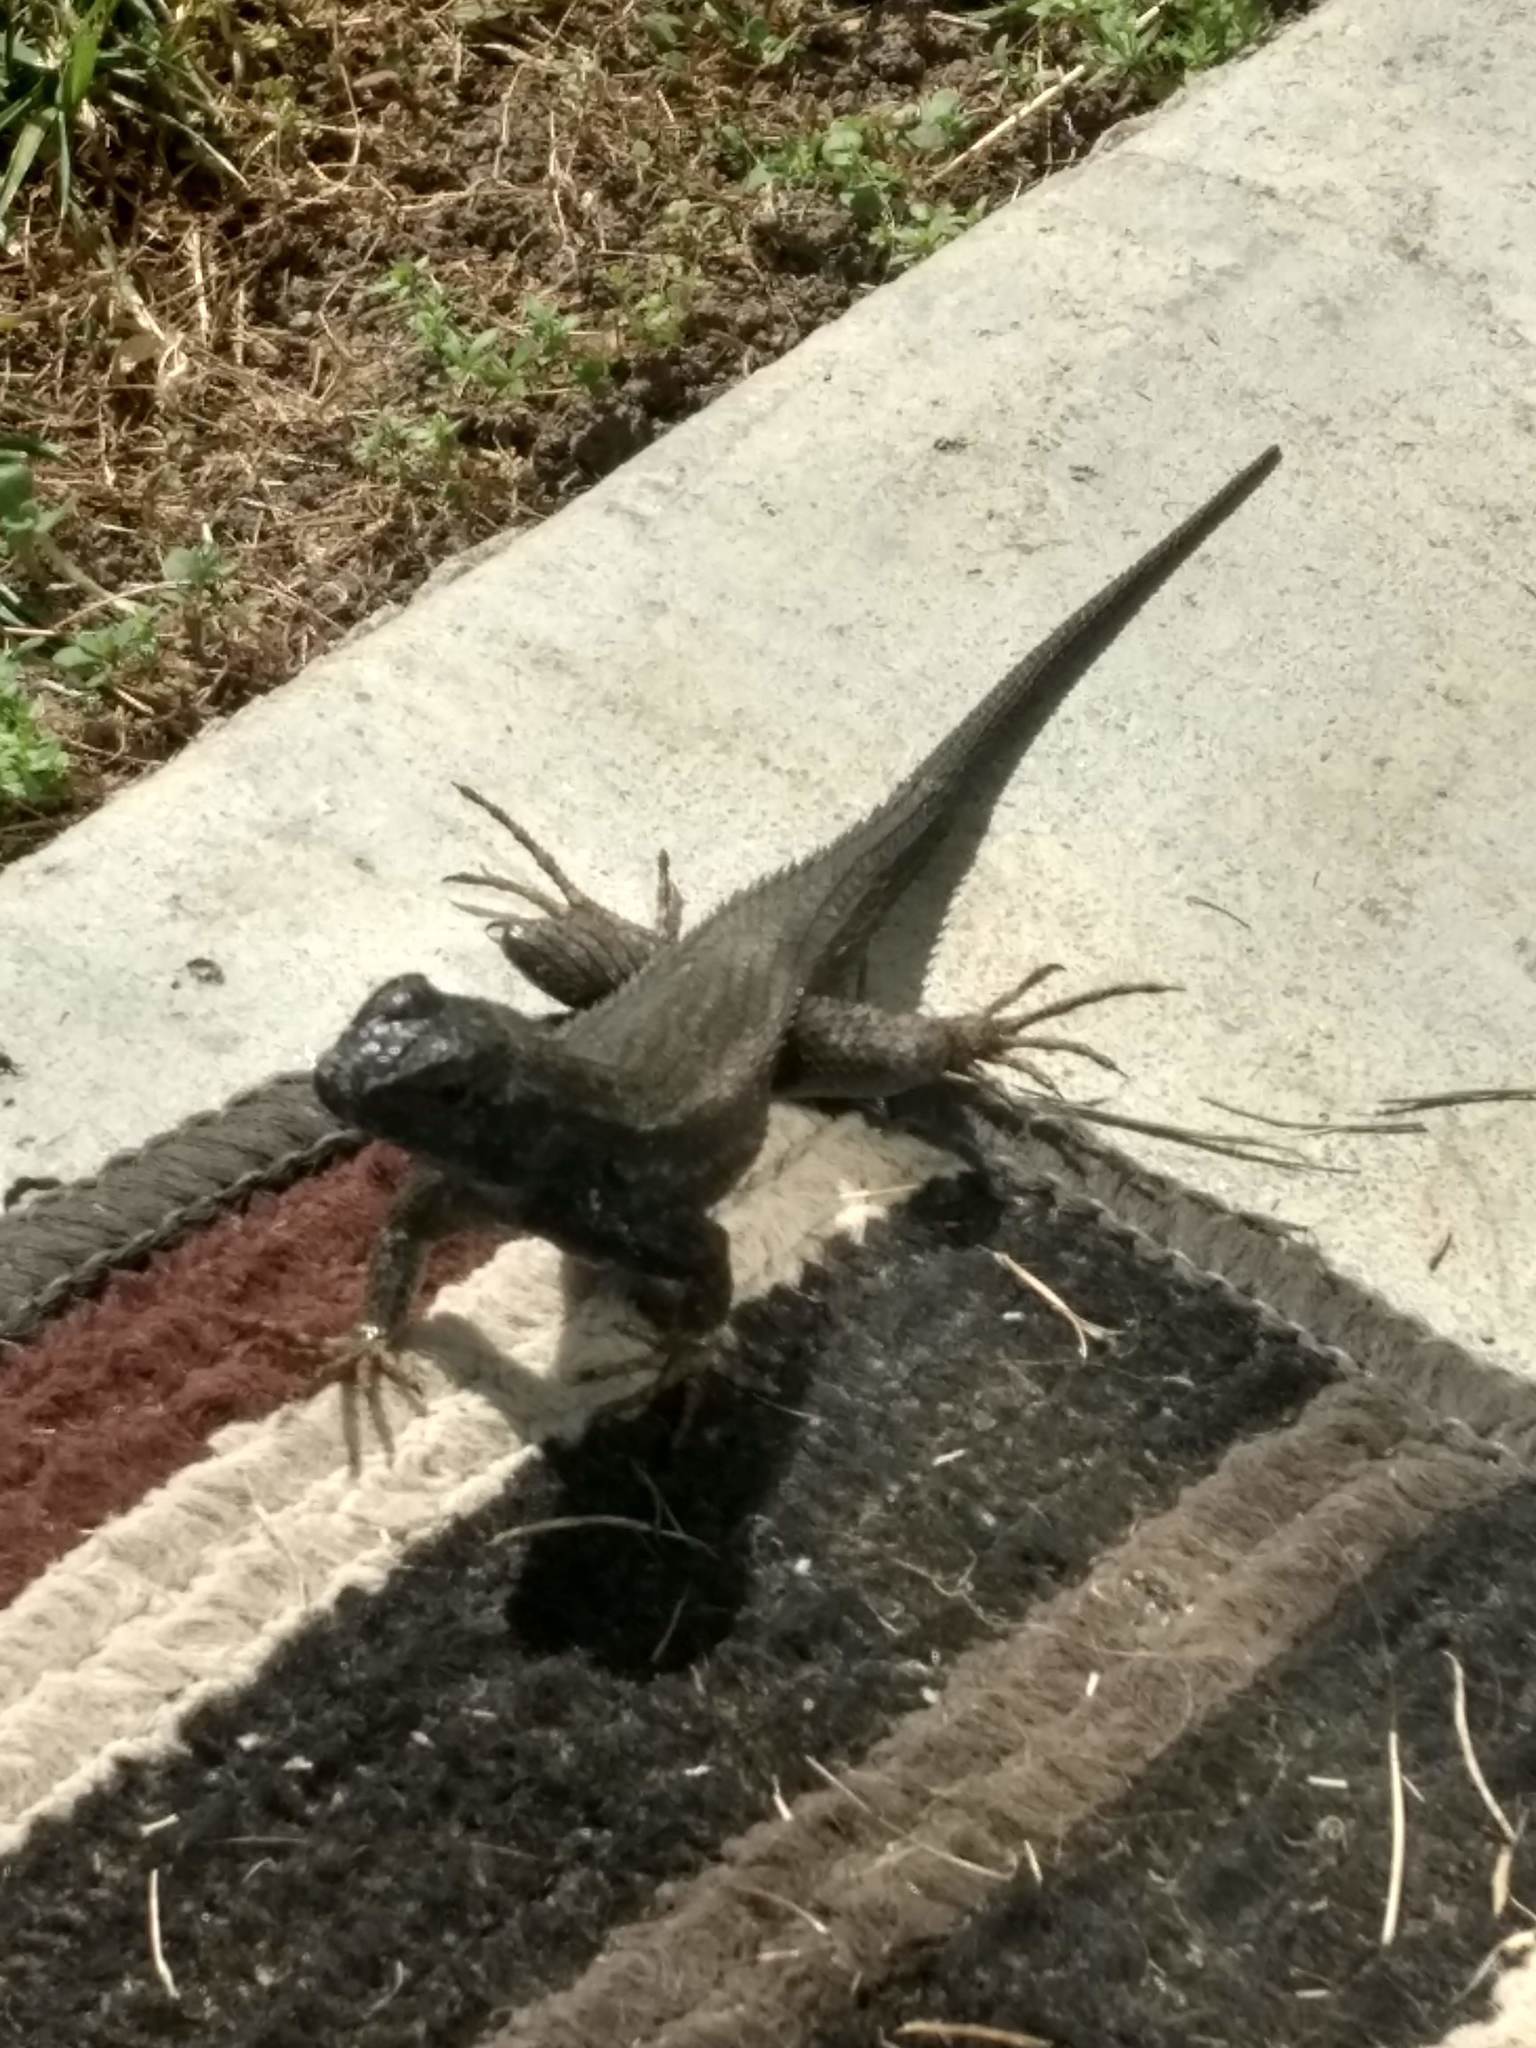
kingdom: Animalia
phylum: Chordata
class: Squamata
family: Phrynosomatidae
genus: Sceloporus
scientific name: Sceloporus occidentalis
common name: Western fence lizard
